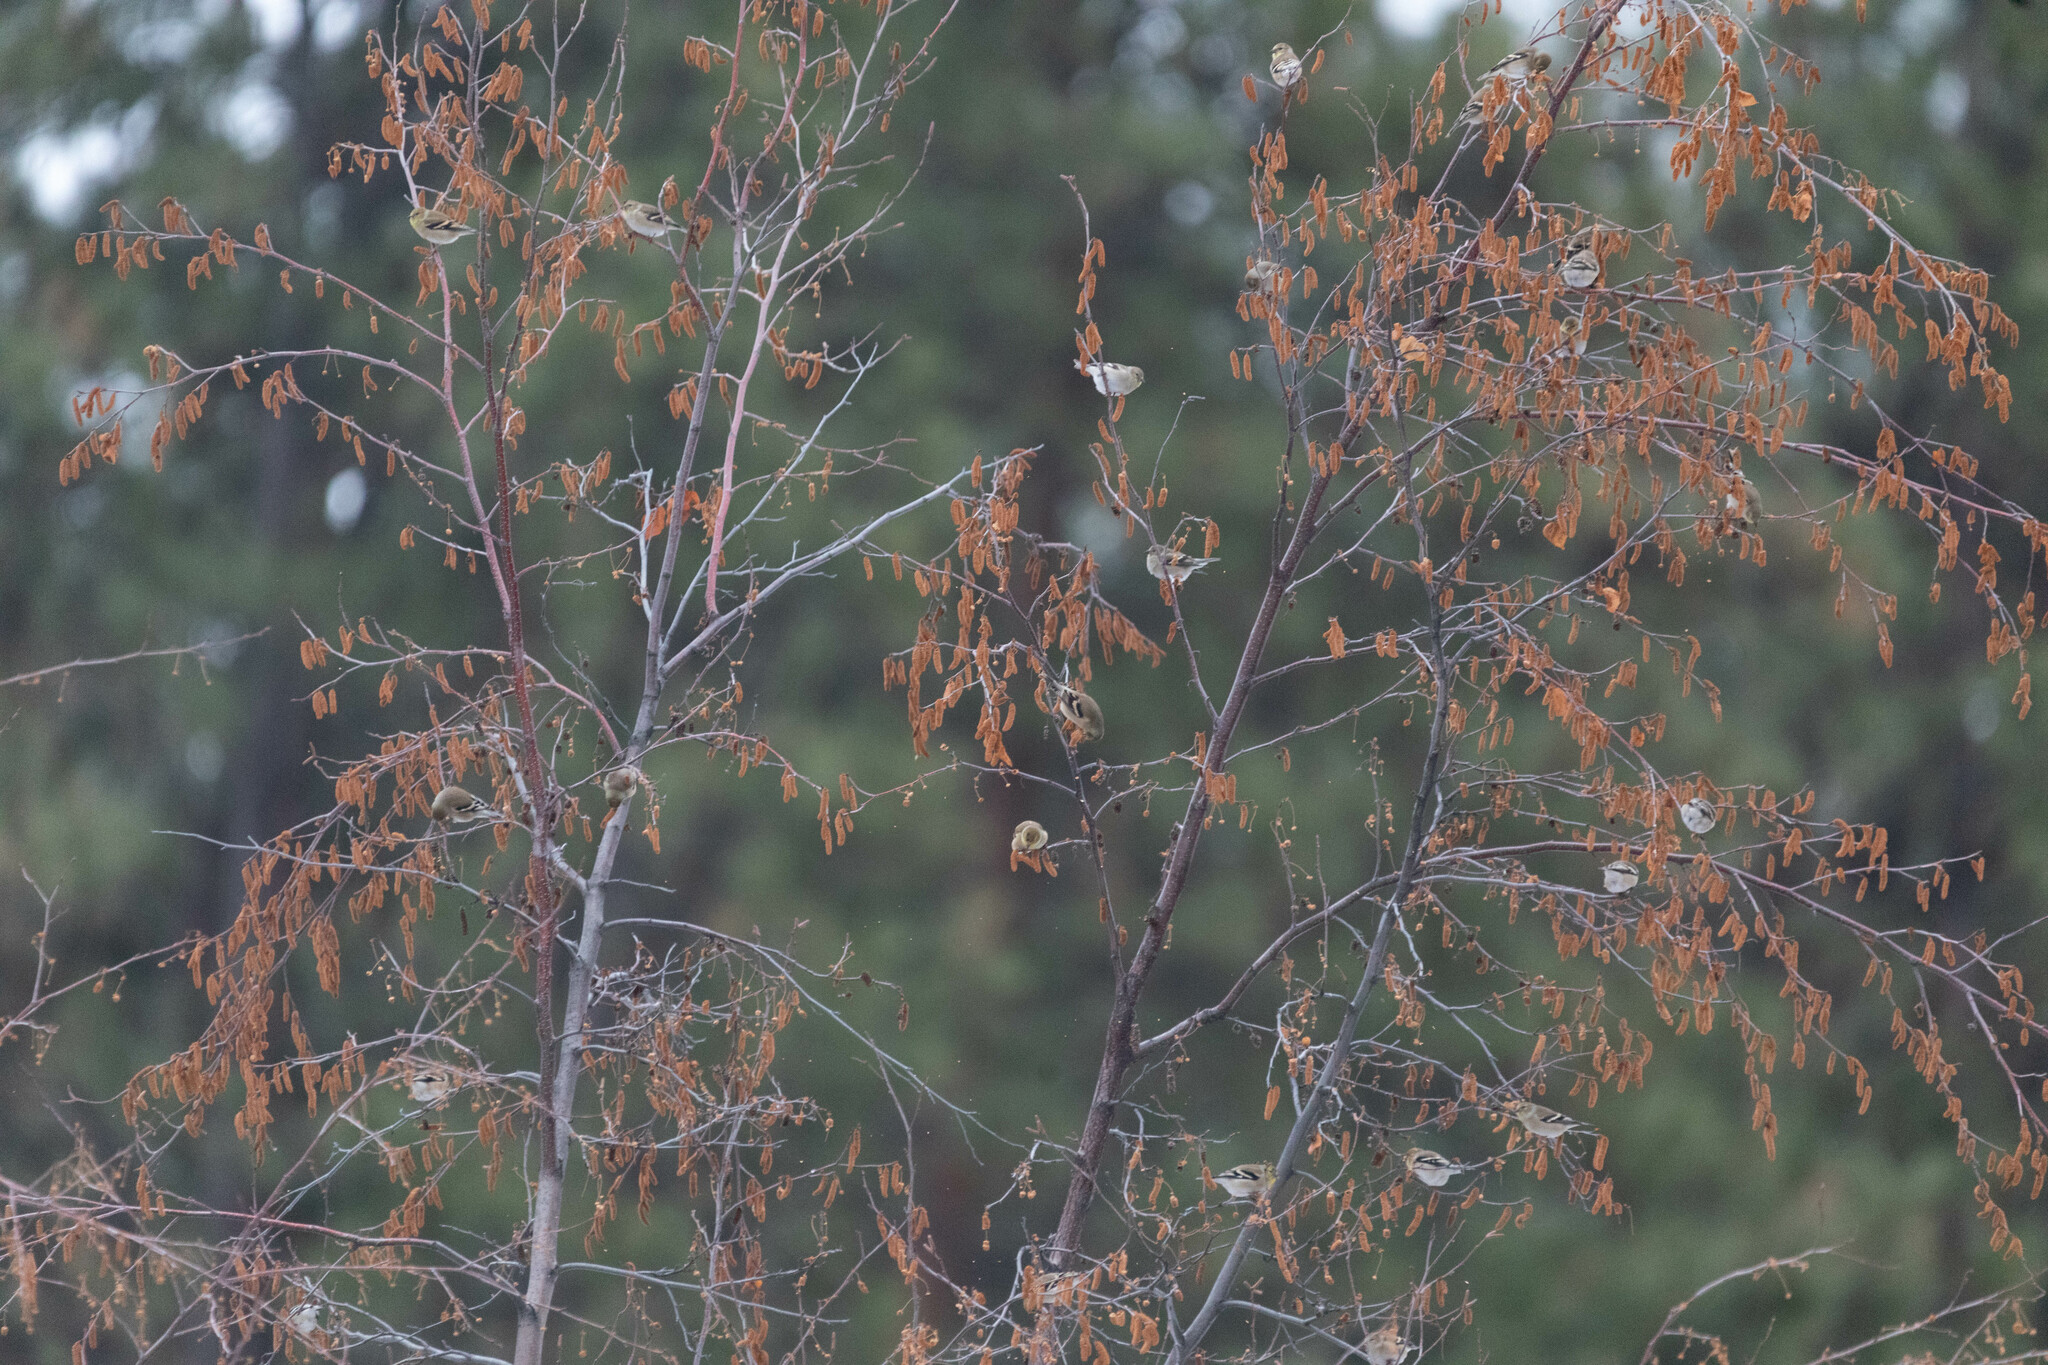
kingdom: Animalia
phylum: Chordata
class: Aves
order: Passeriformes
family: Fringillidae
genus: Spinus
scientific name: Spinus tristis
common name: American goldfinch
